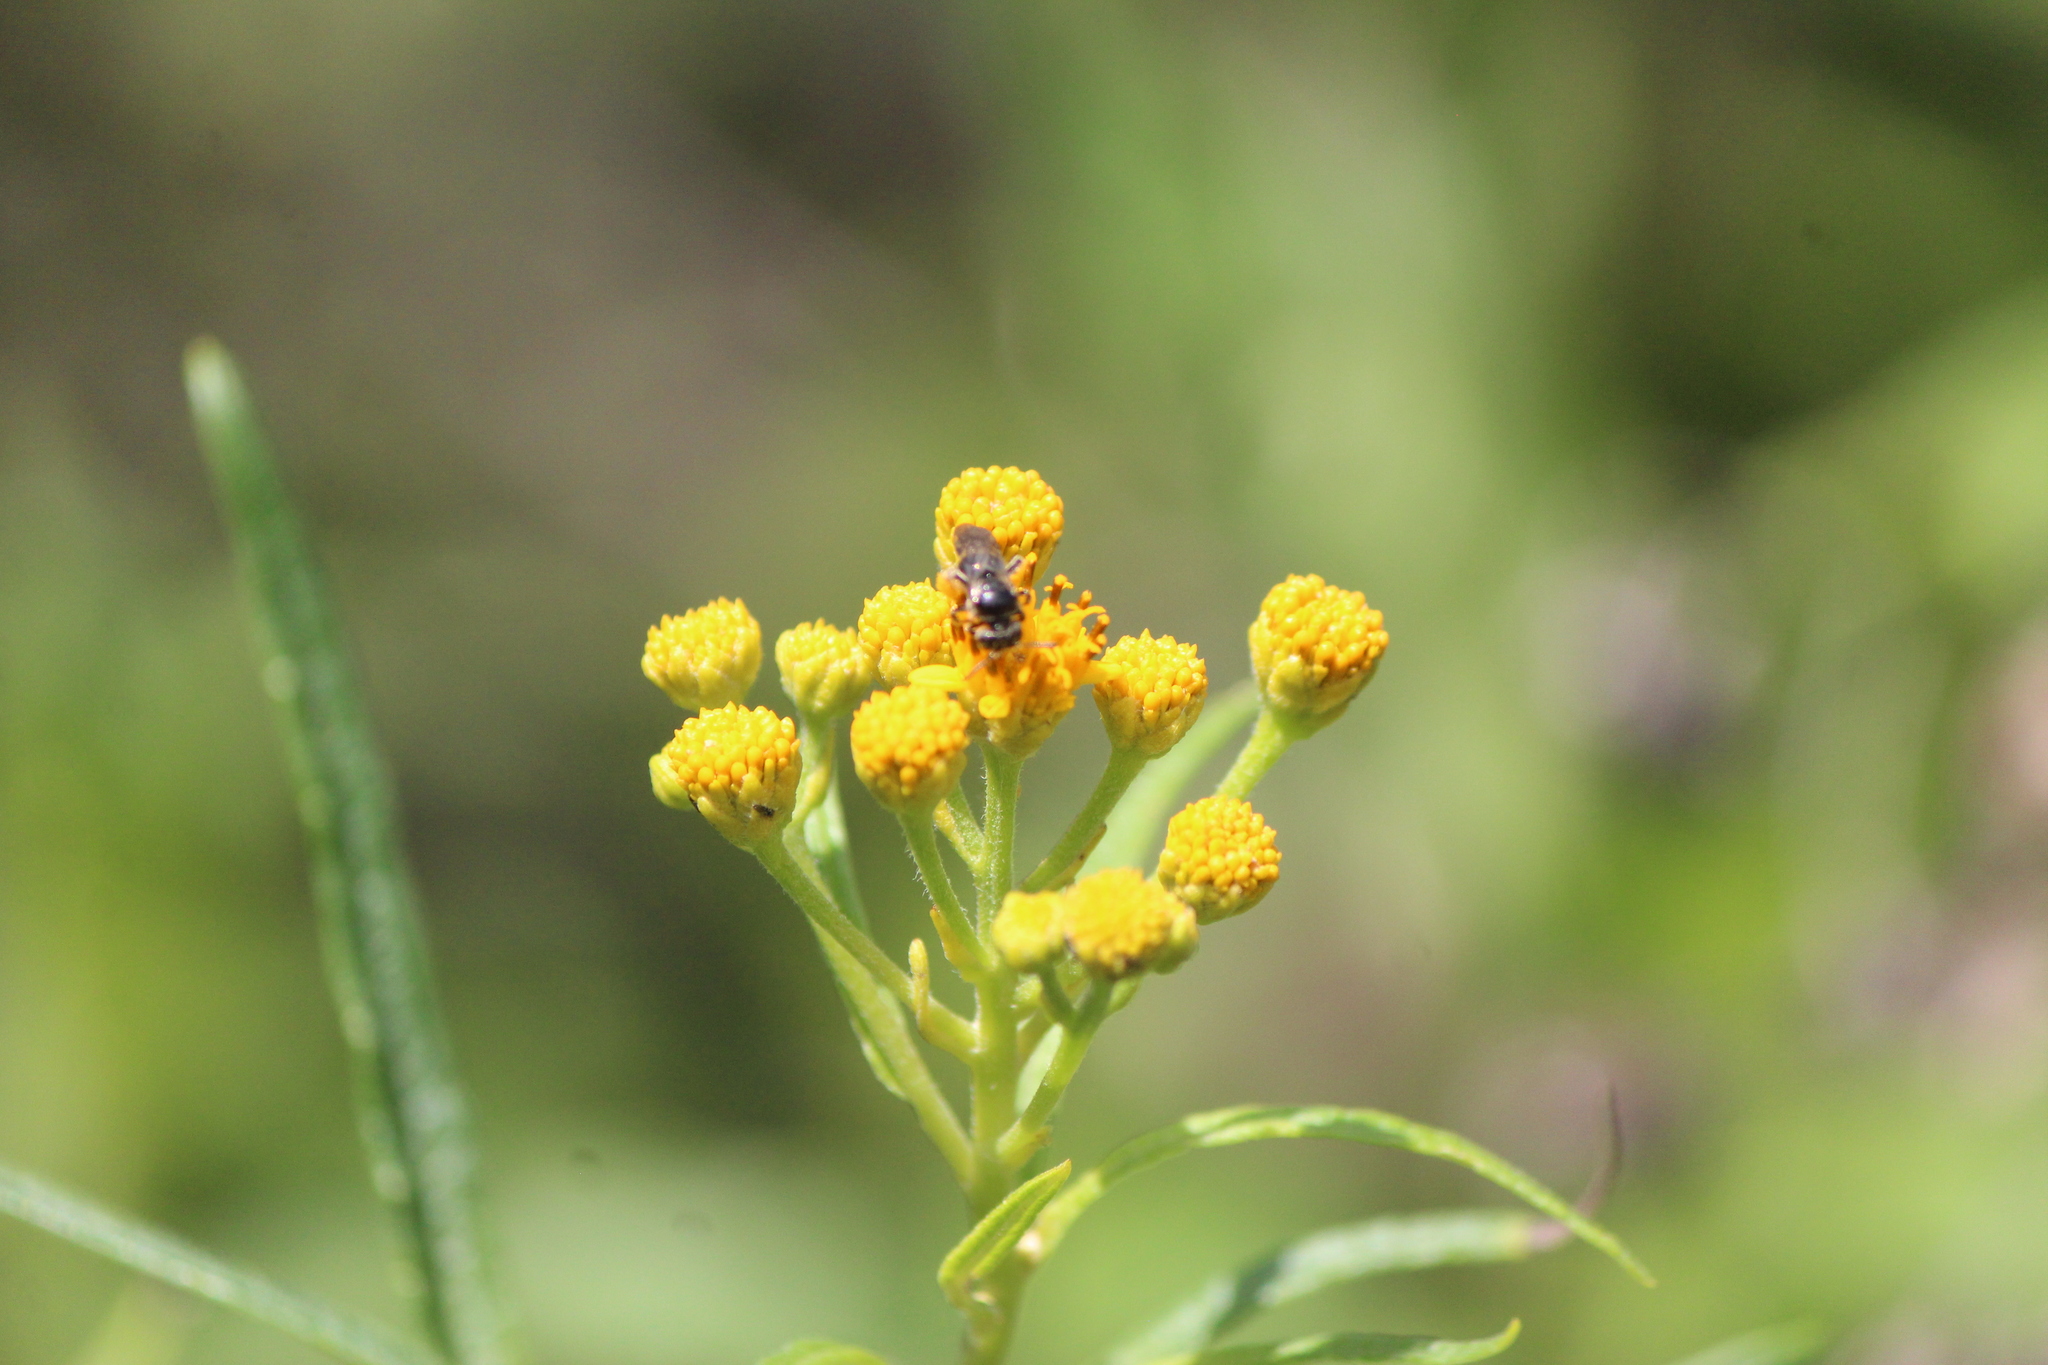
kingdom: Plantae
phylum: Tracheophyta
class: Magnoliopsida
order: Asterales
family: Asteraceae
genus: Verbesina
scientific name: Verbesina virgata
